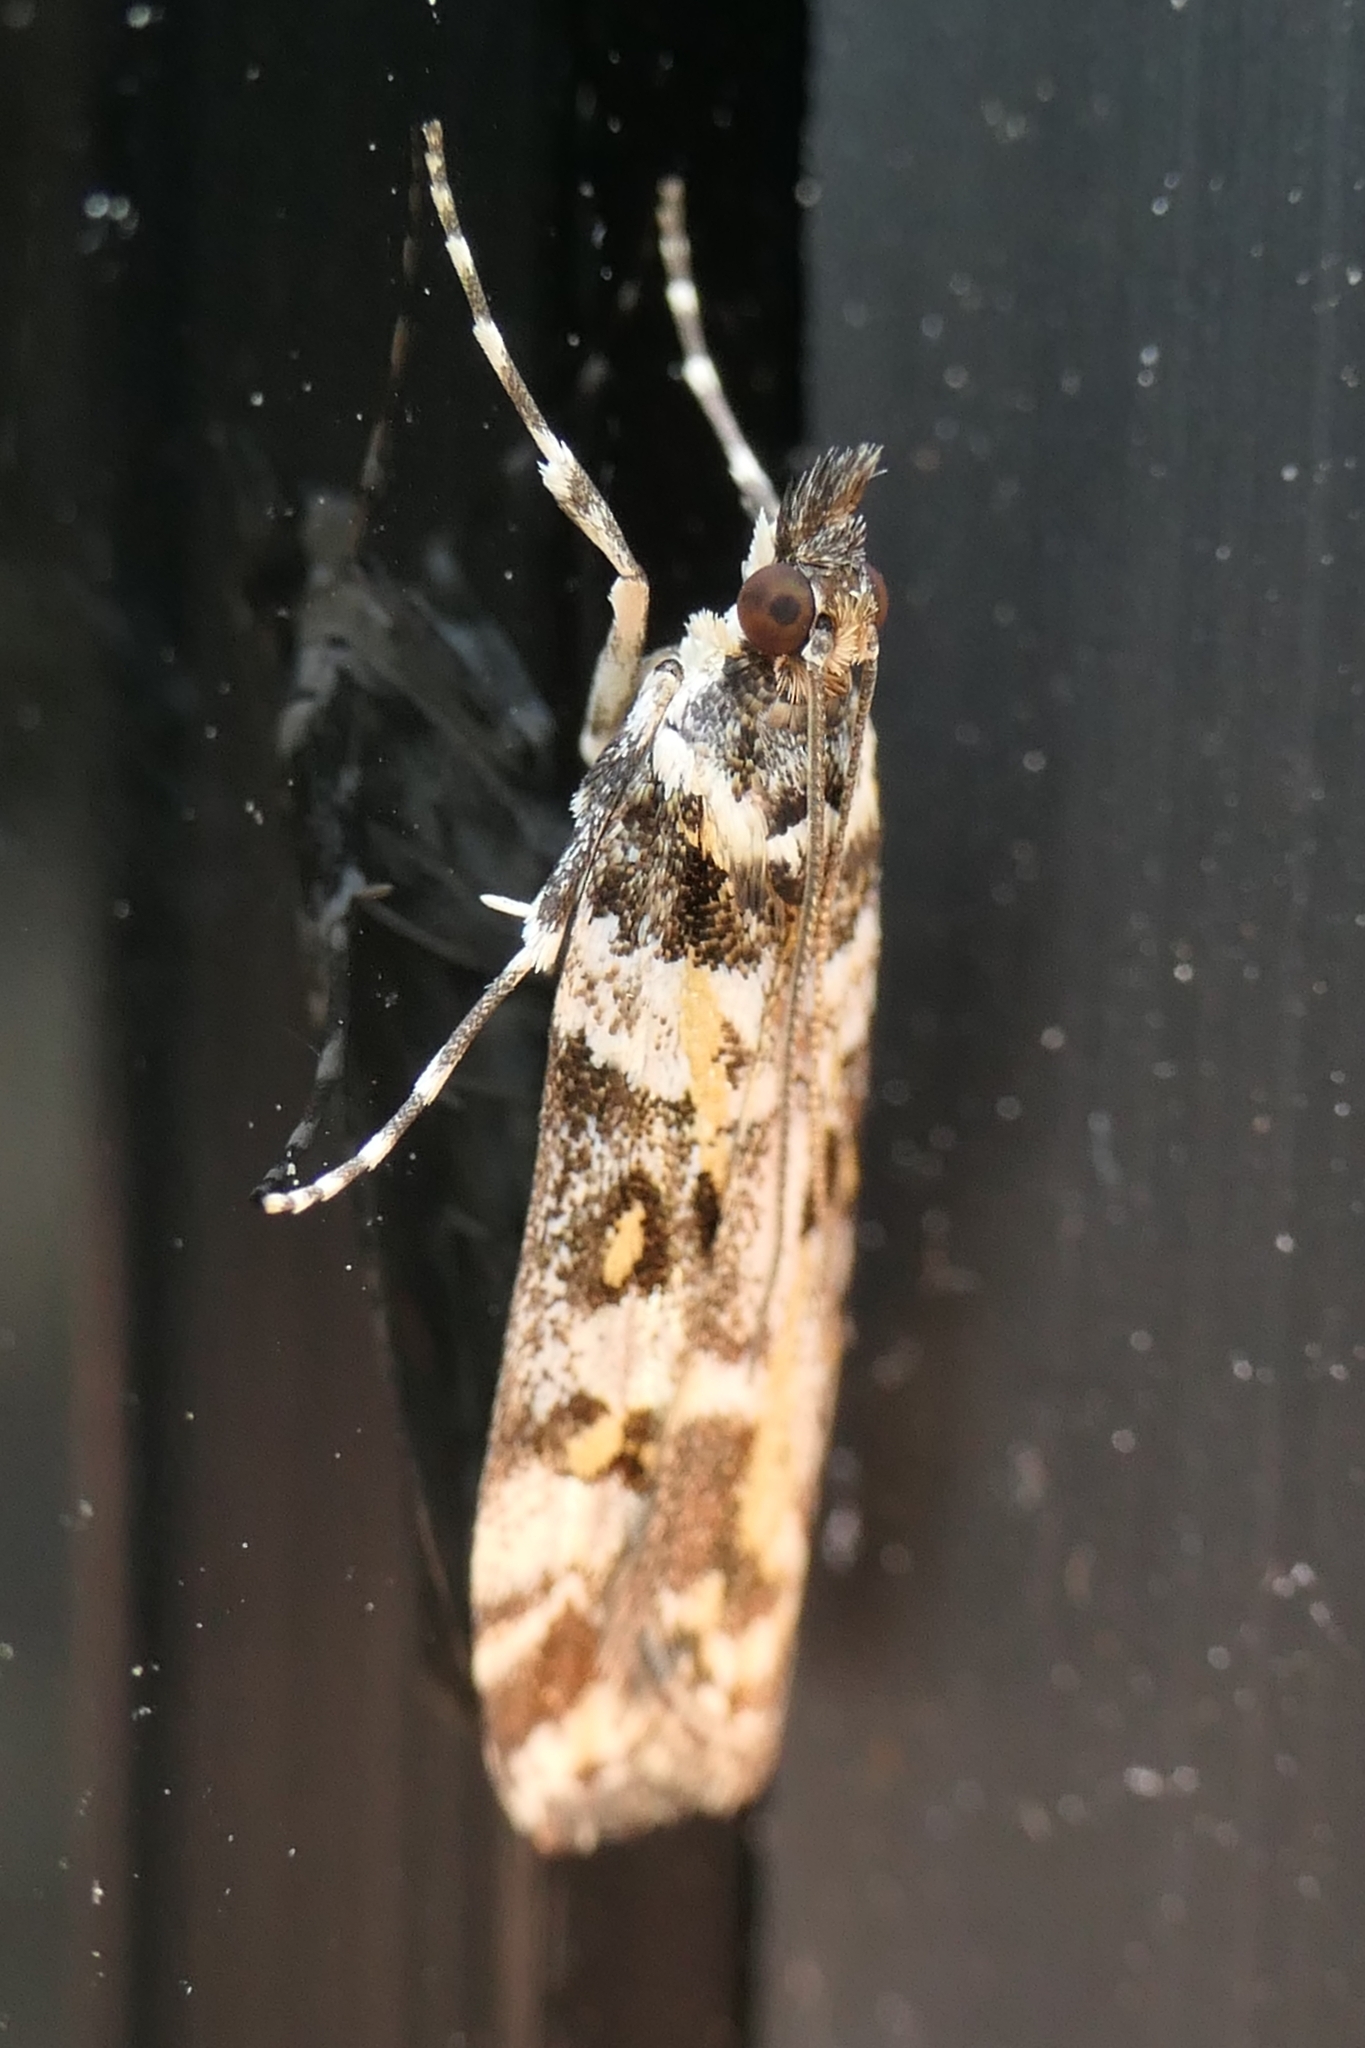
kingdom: Animalia
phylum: Arthropoda
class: Insecta
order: Lepidoptera
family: Crambidae
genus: Eudonia
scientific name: Eudonia diphtheralis
